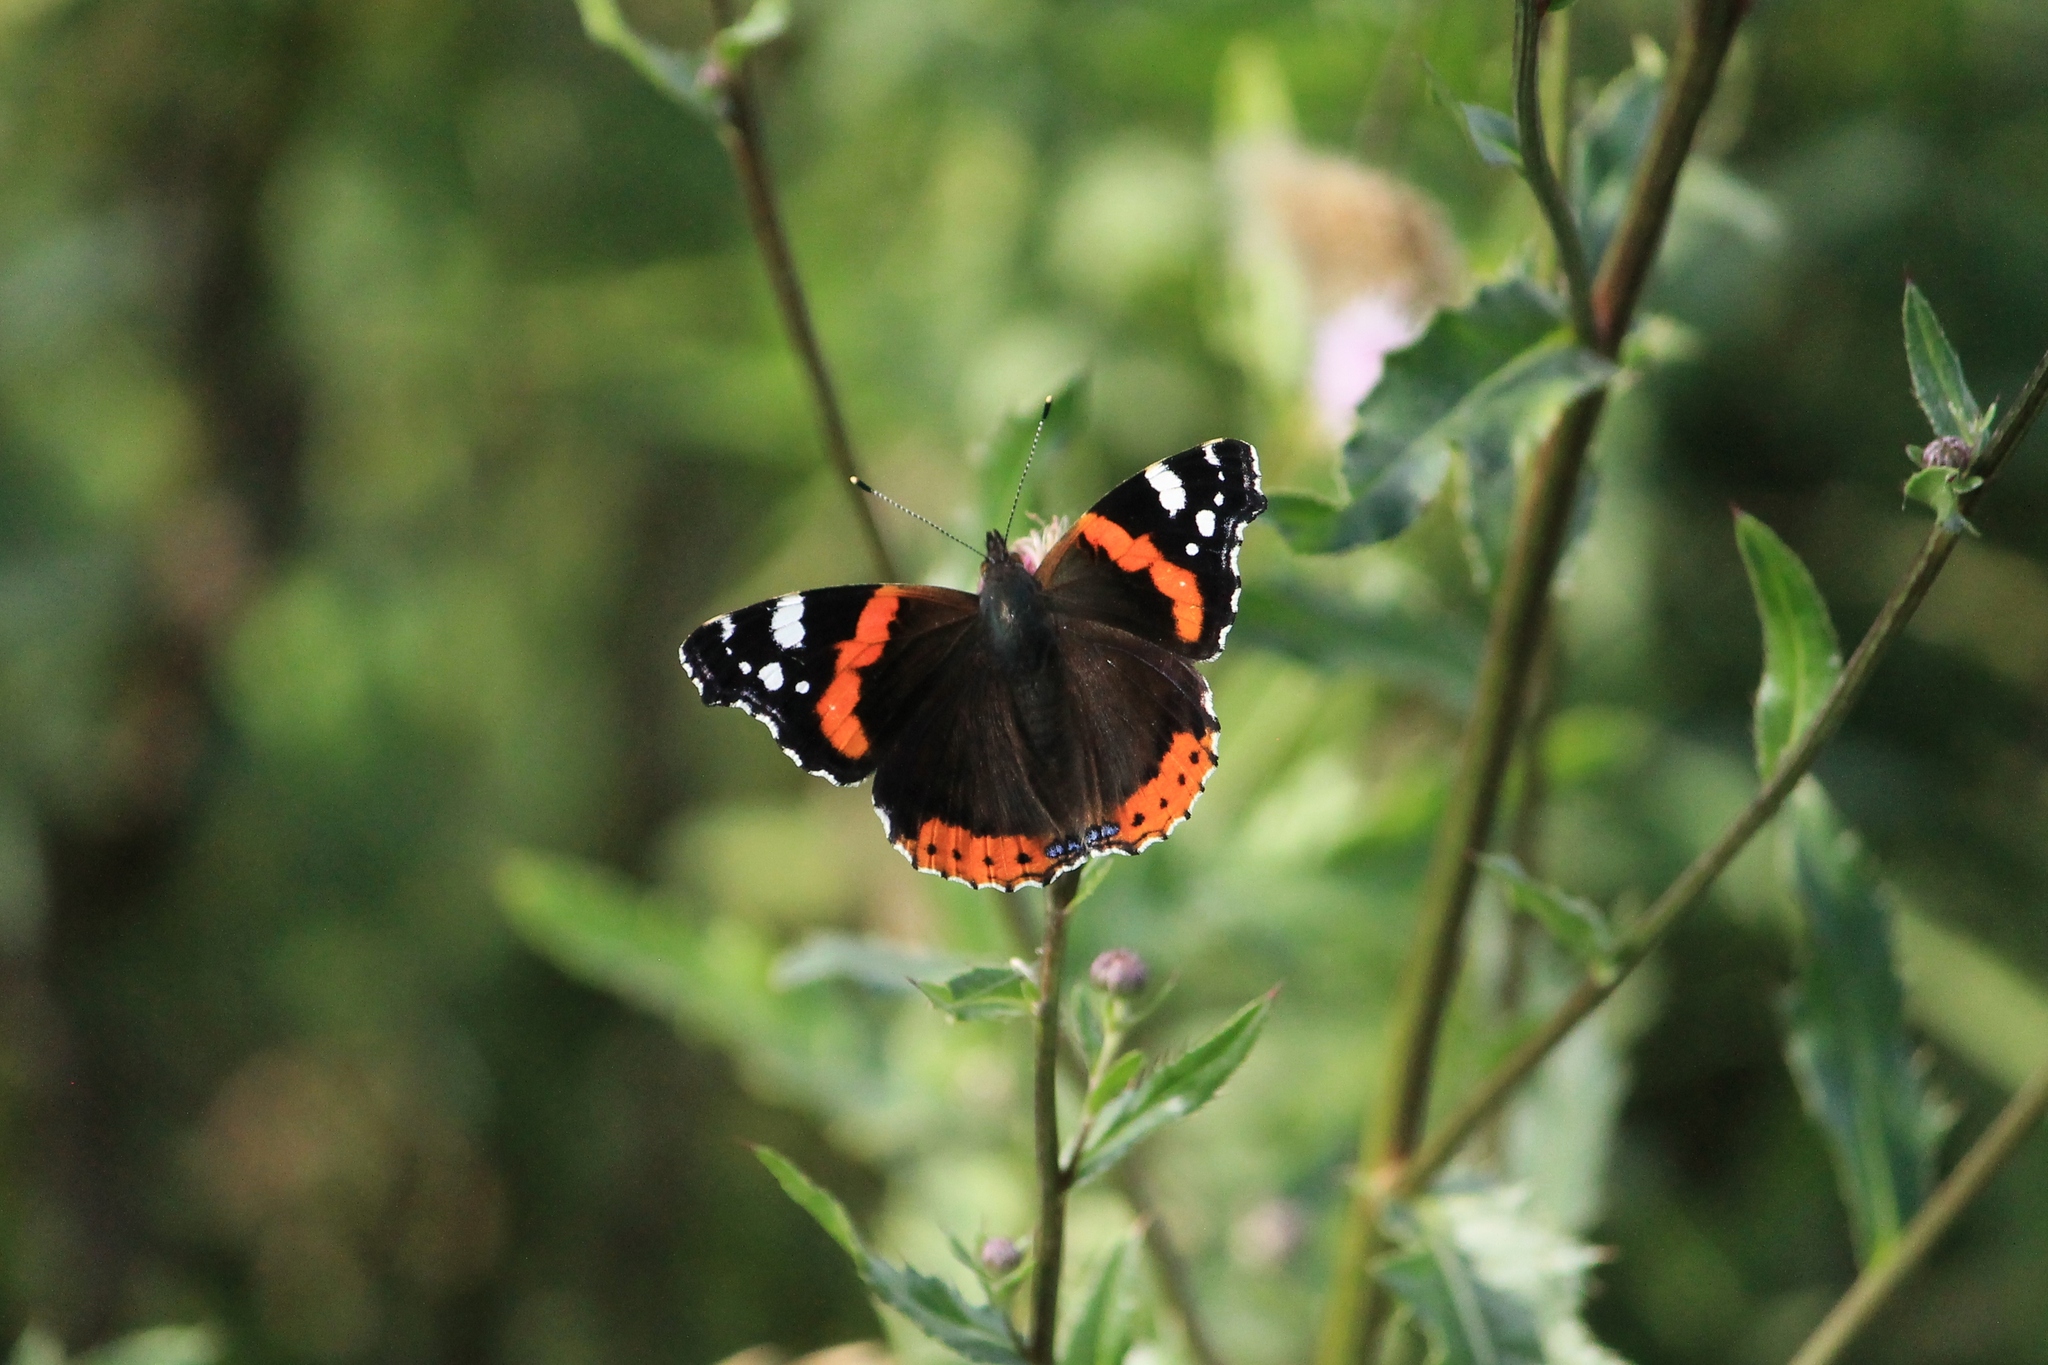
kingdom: Animalia
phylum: Arthropoda
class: Insecta
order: Lepidoptera
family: Nymphalidae
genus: Vanessa
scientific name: Vanessa atalanta
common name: Red admiral
